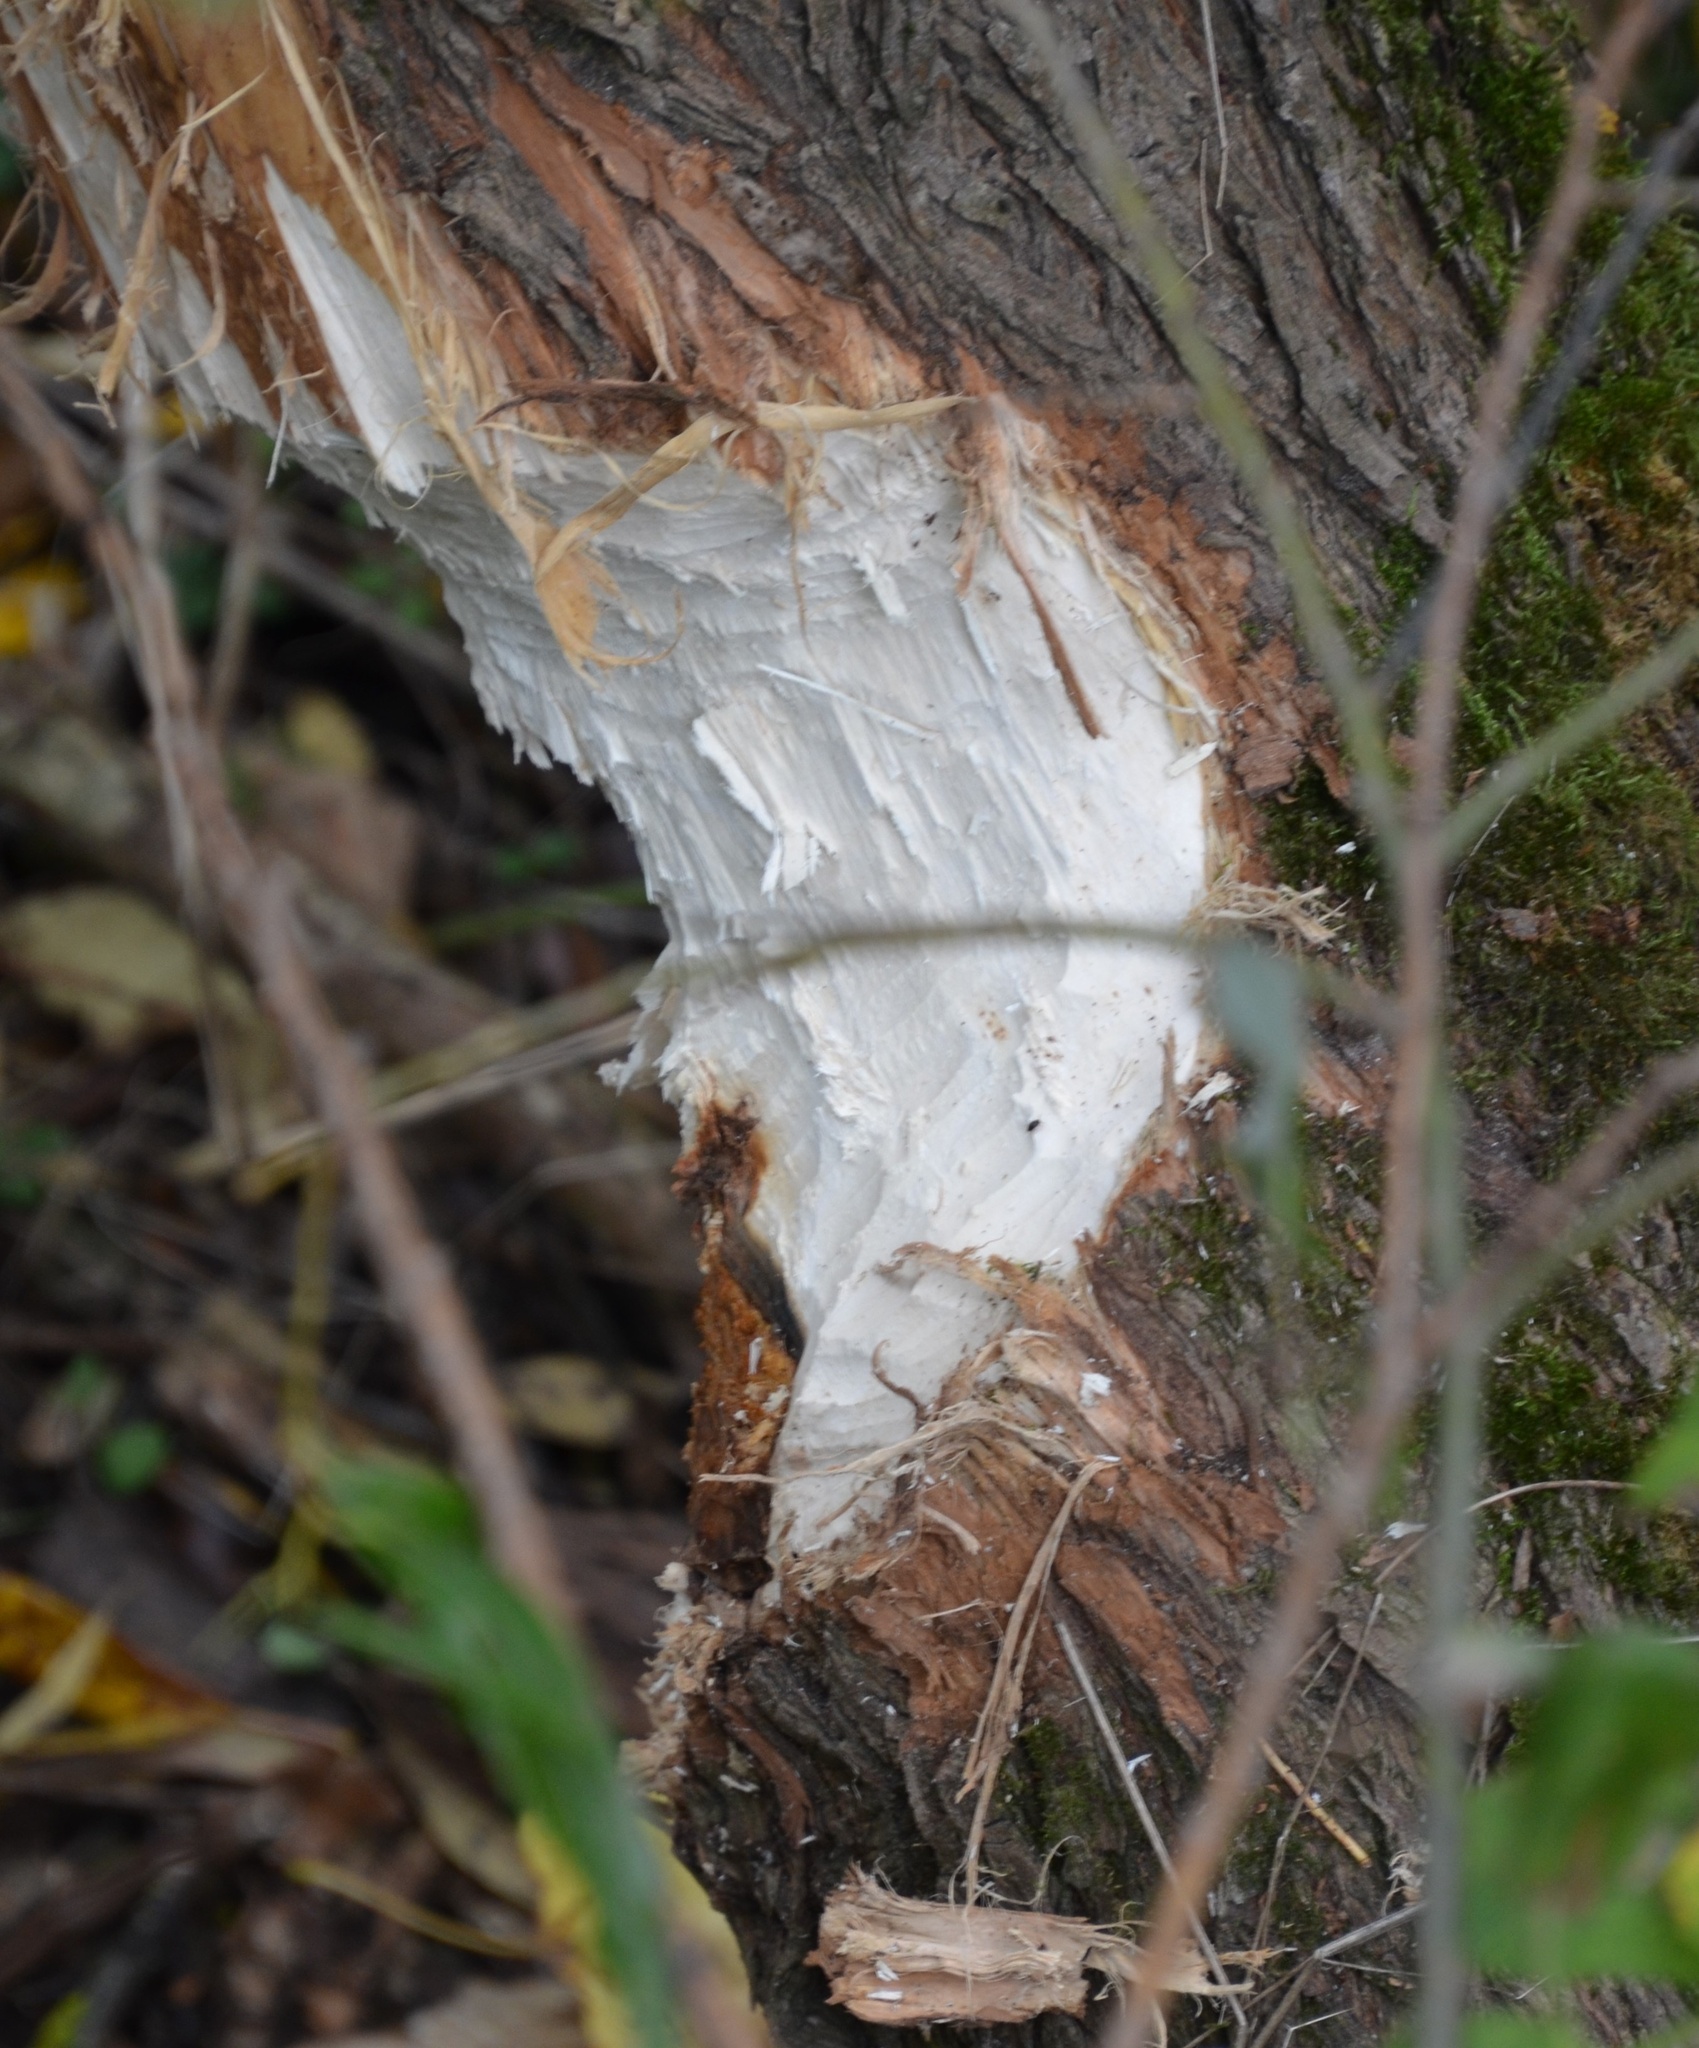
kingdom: Animalia
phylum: Chordata
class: Mammalia
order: Rodentia
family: Castoridae
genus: Castor
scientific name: Castor fiber
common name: Eurasian beaver
